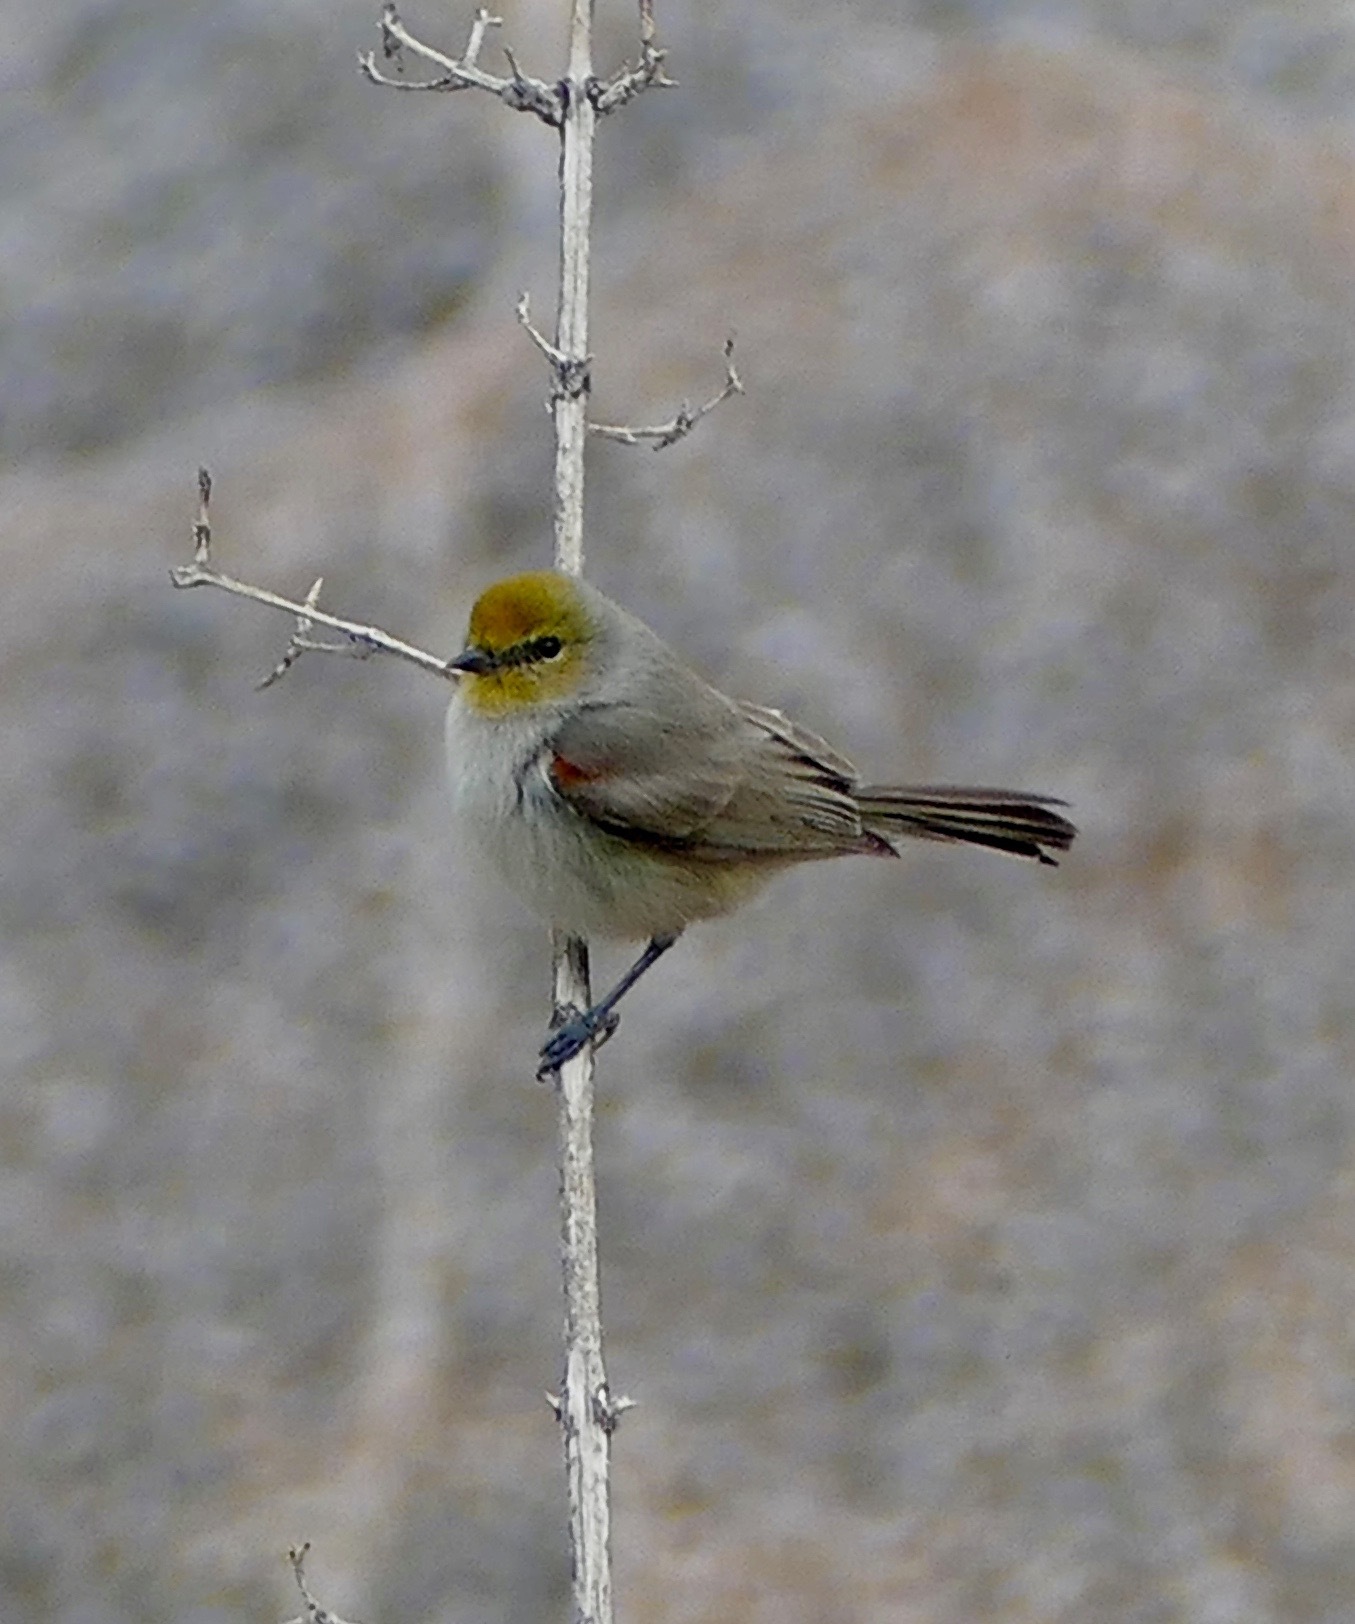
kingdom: Animalia
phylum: Chordata
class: Aves
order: Passeriformes
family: Remizidae
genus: Auriparus
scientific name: Auriparus flaviceps
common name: Verdin
